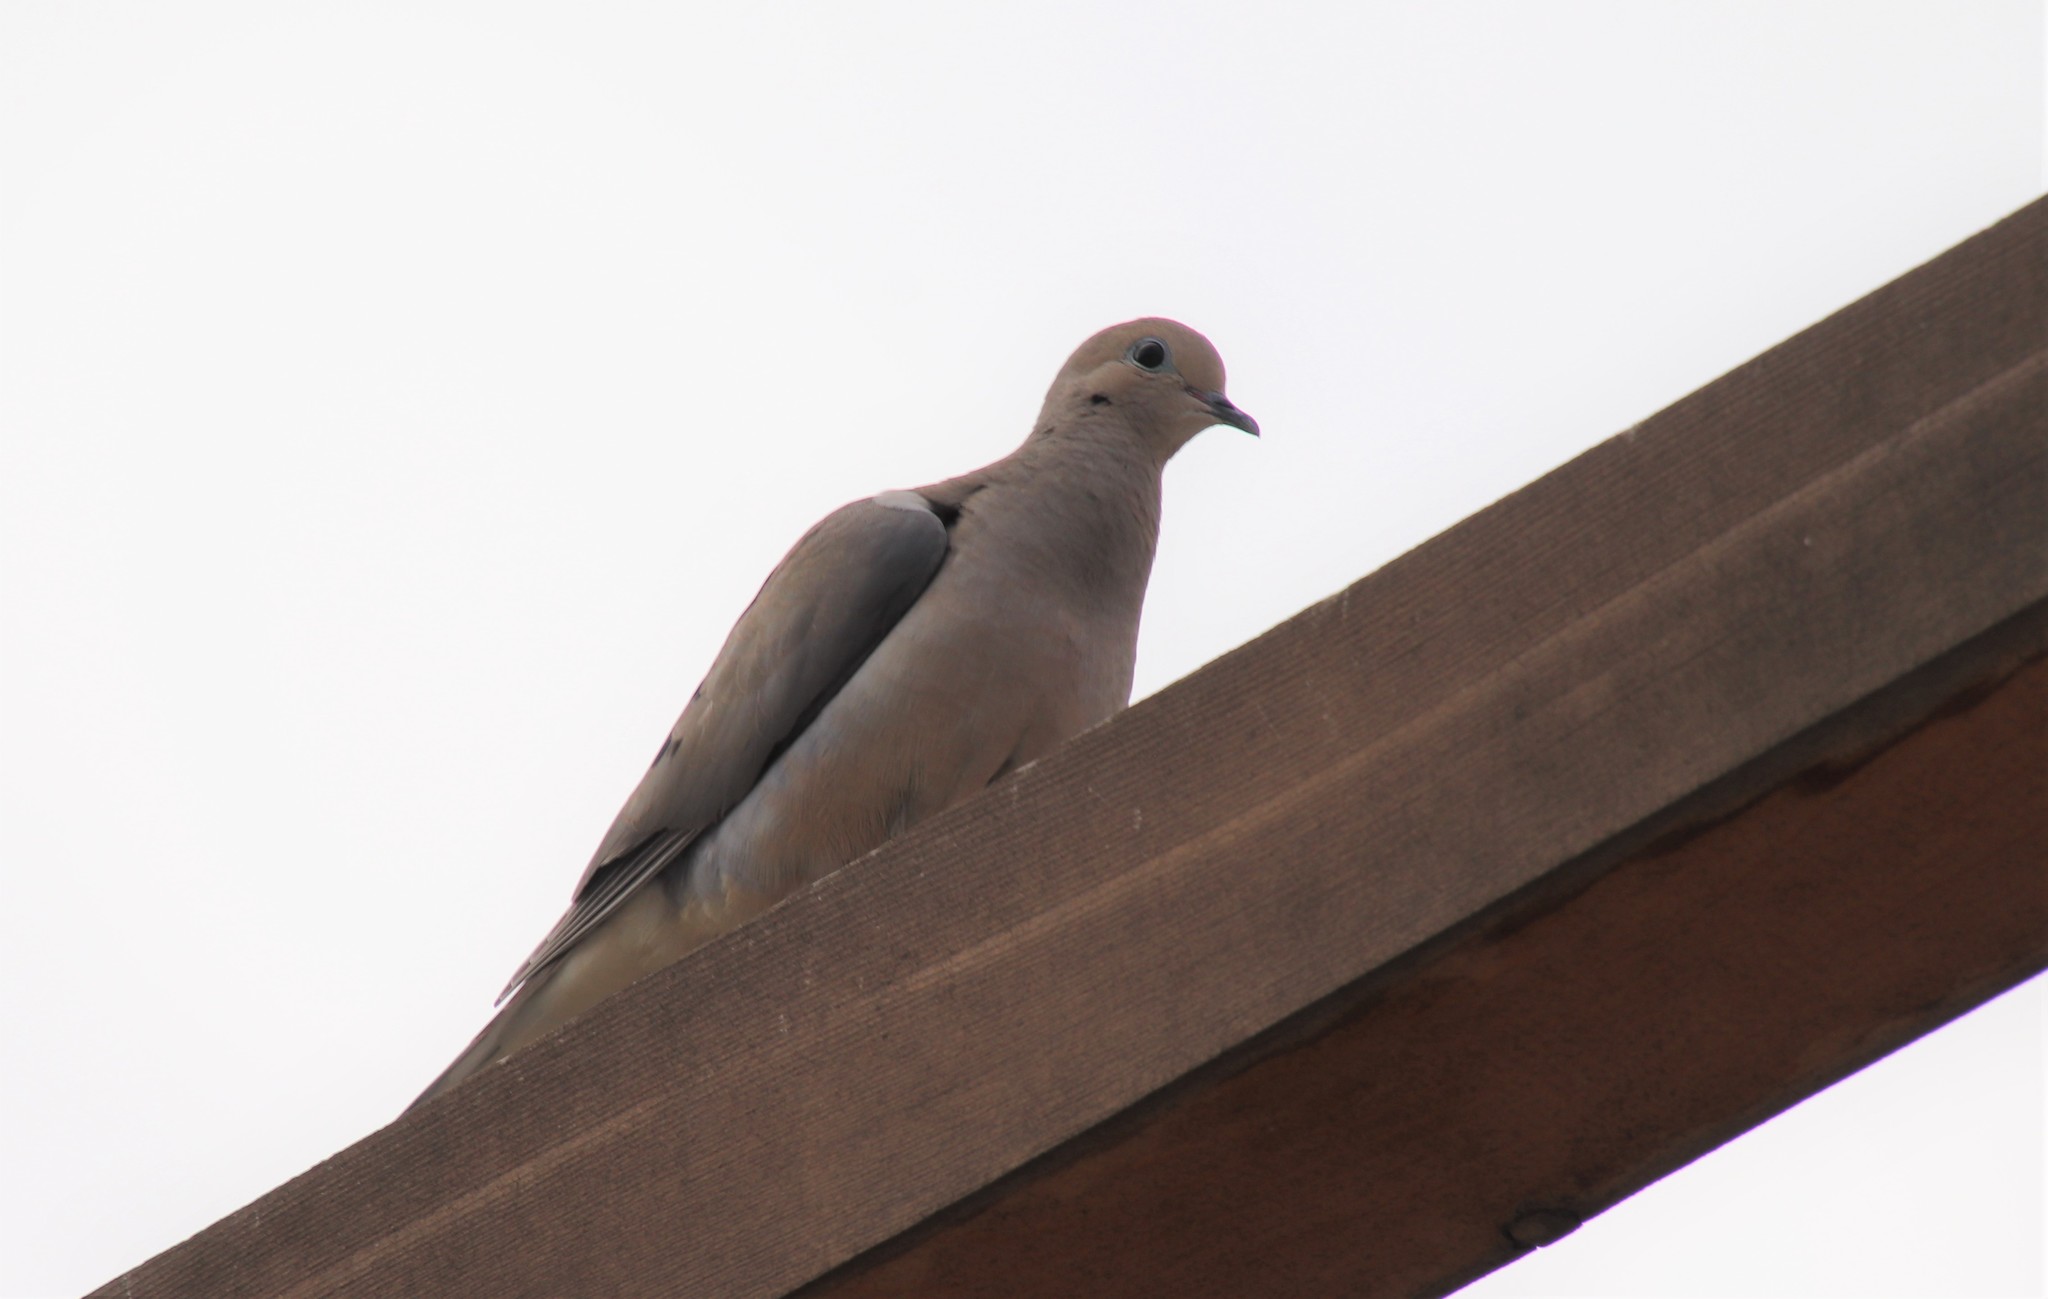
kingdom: Animalia
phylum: Chordata
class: Aves
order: Columbiformes
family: Columbidae
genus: Zenaida
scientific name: Zenaida macroura
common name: Mourning dove
